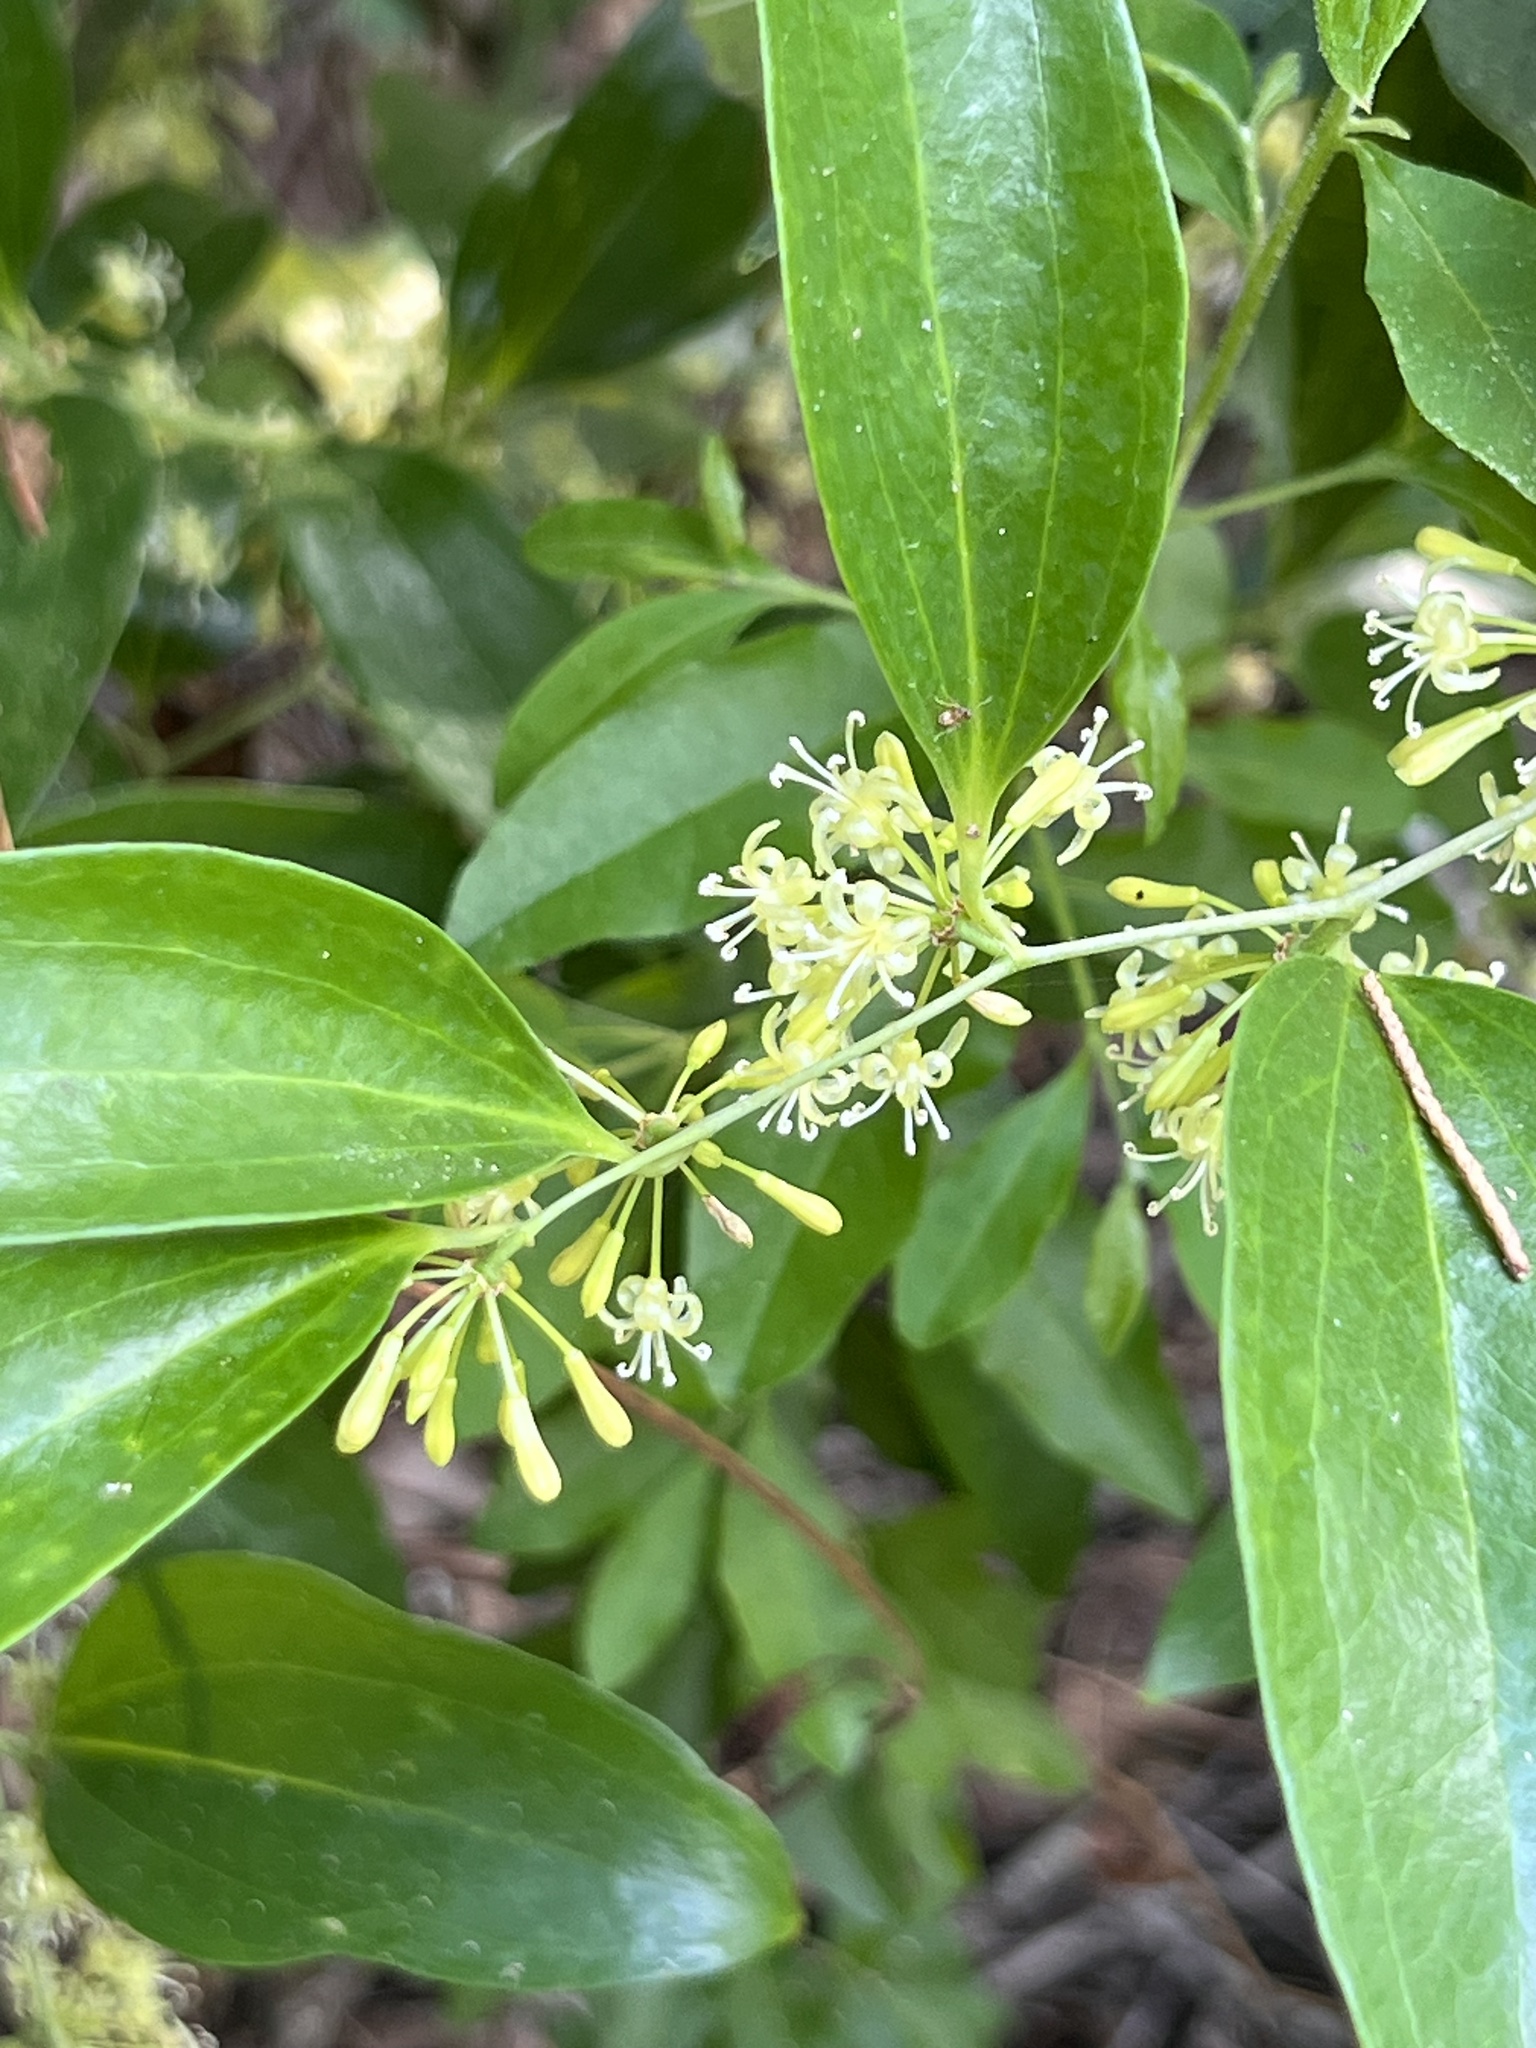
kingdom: Plantae
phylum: Tracheophyta
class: Liliopsida
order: Liliales
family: Smilacaceae
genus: Smilax
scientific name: Smilax maritima
